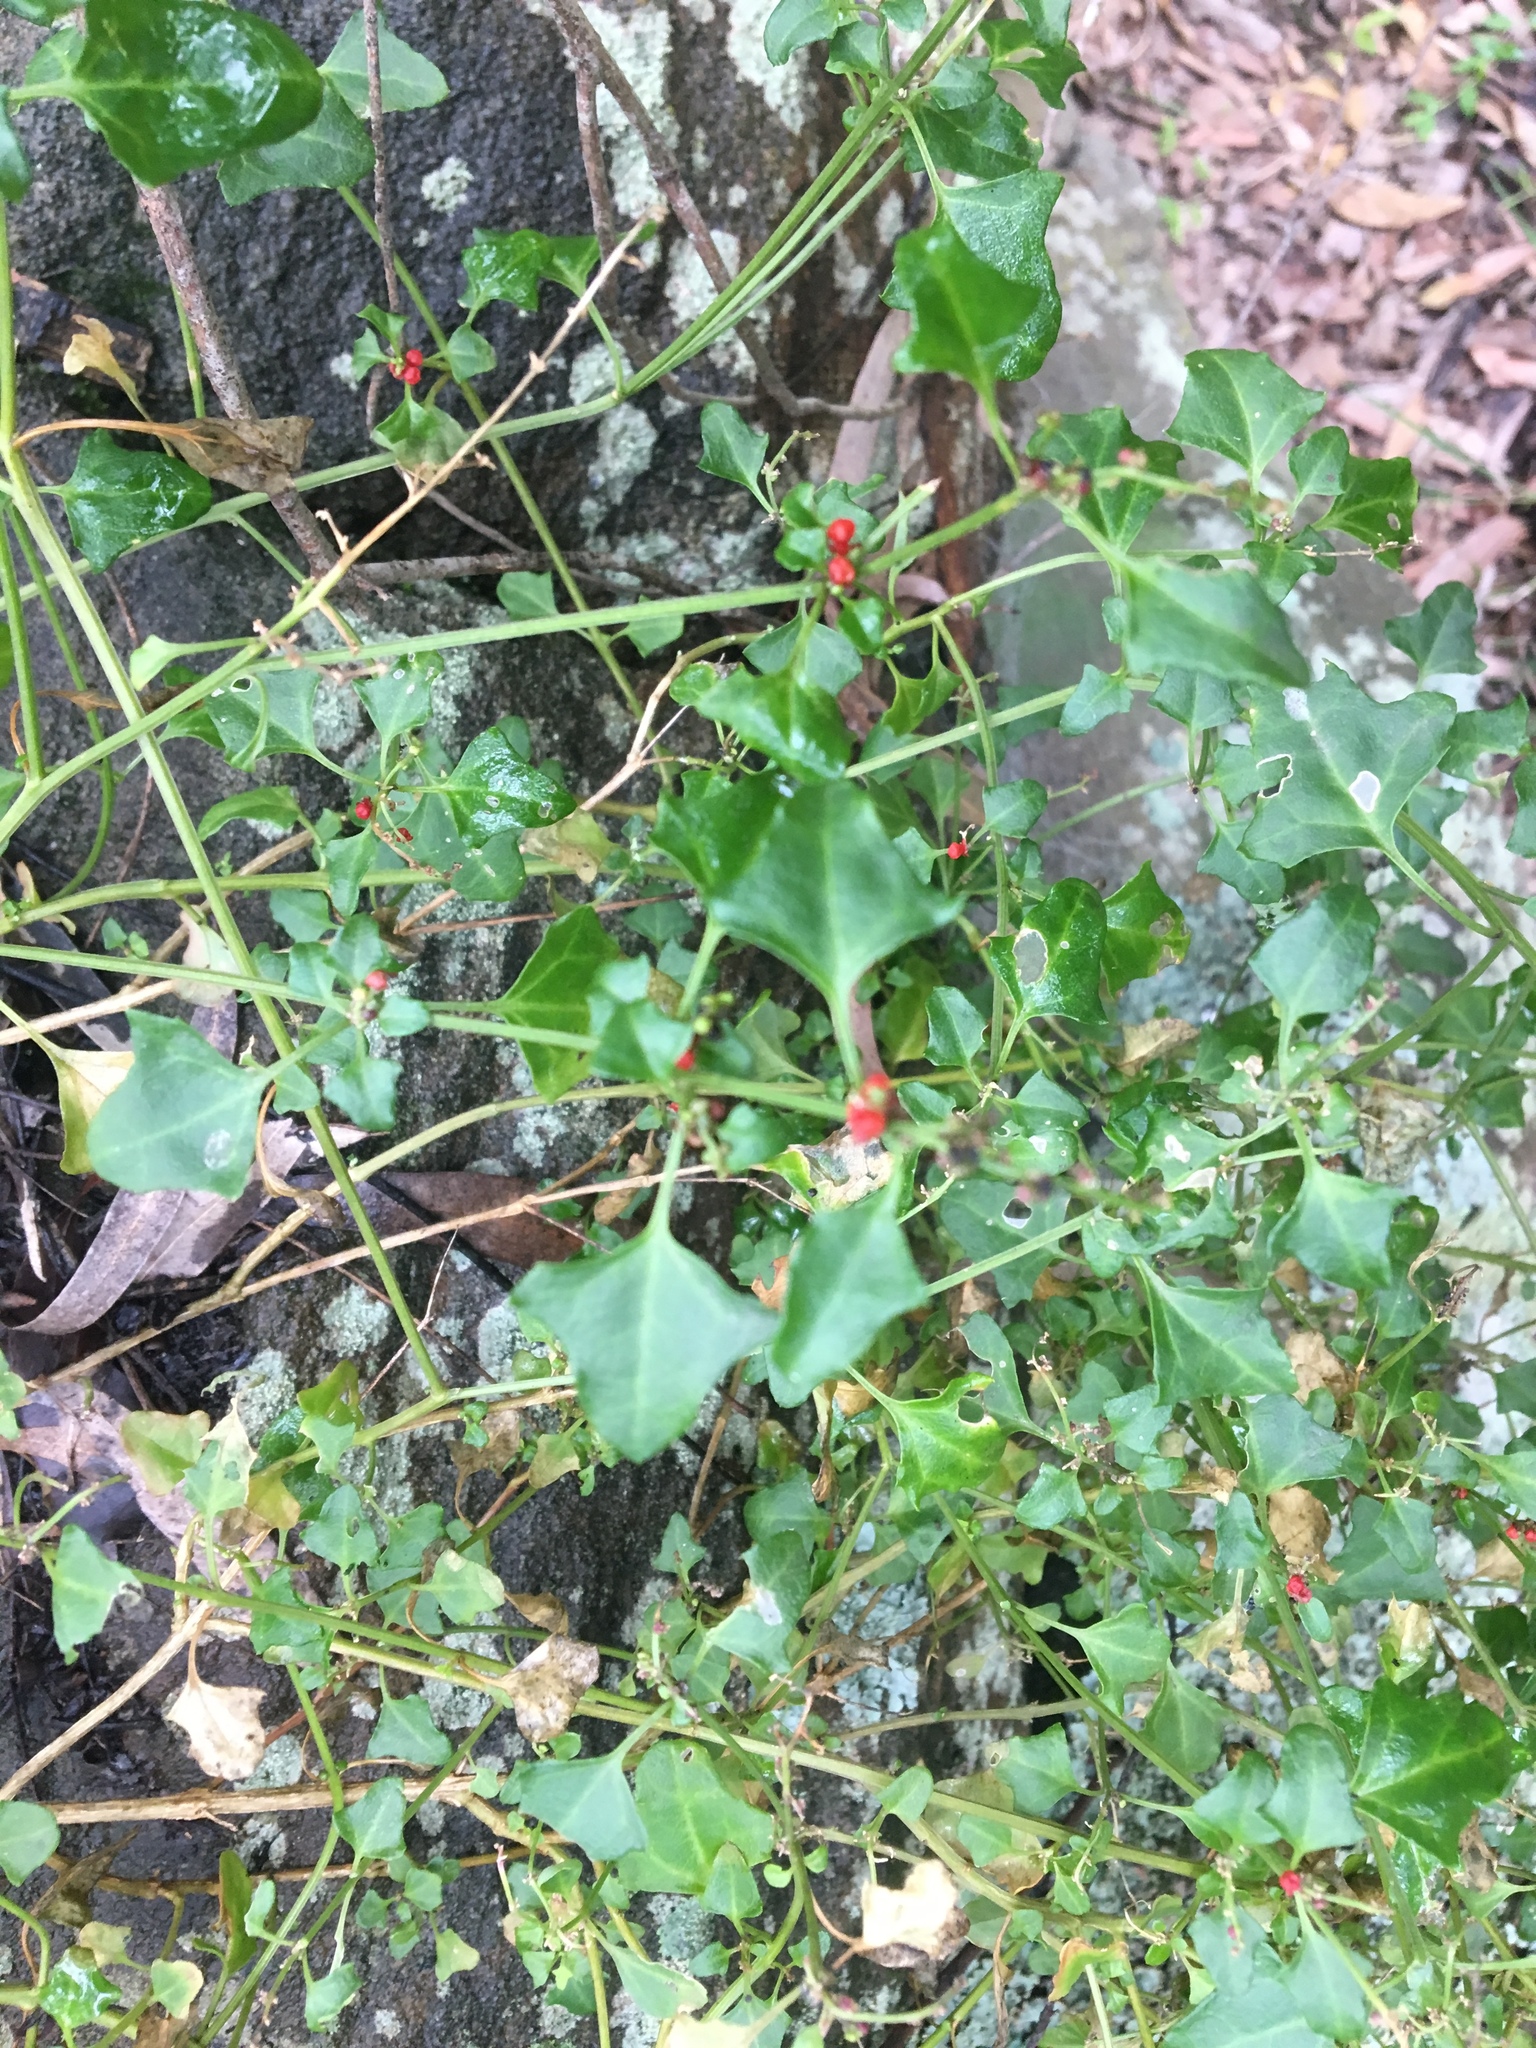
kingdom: Plantae
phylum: Tracheophyta
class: Magnoliopsida
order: Caryophyllales
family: Amaranthaceae
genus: Chenopodium
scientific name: Chenopodium robertianum
